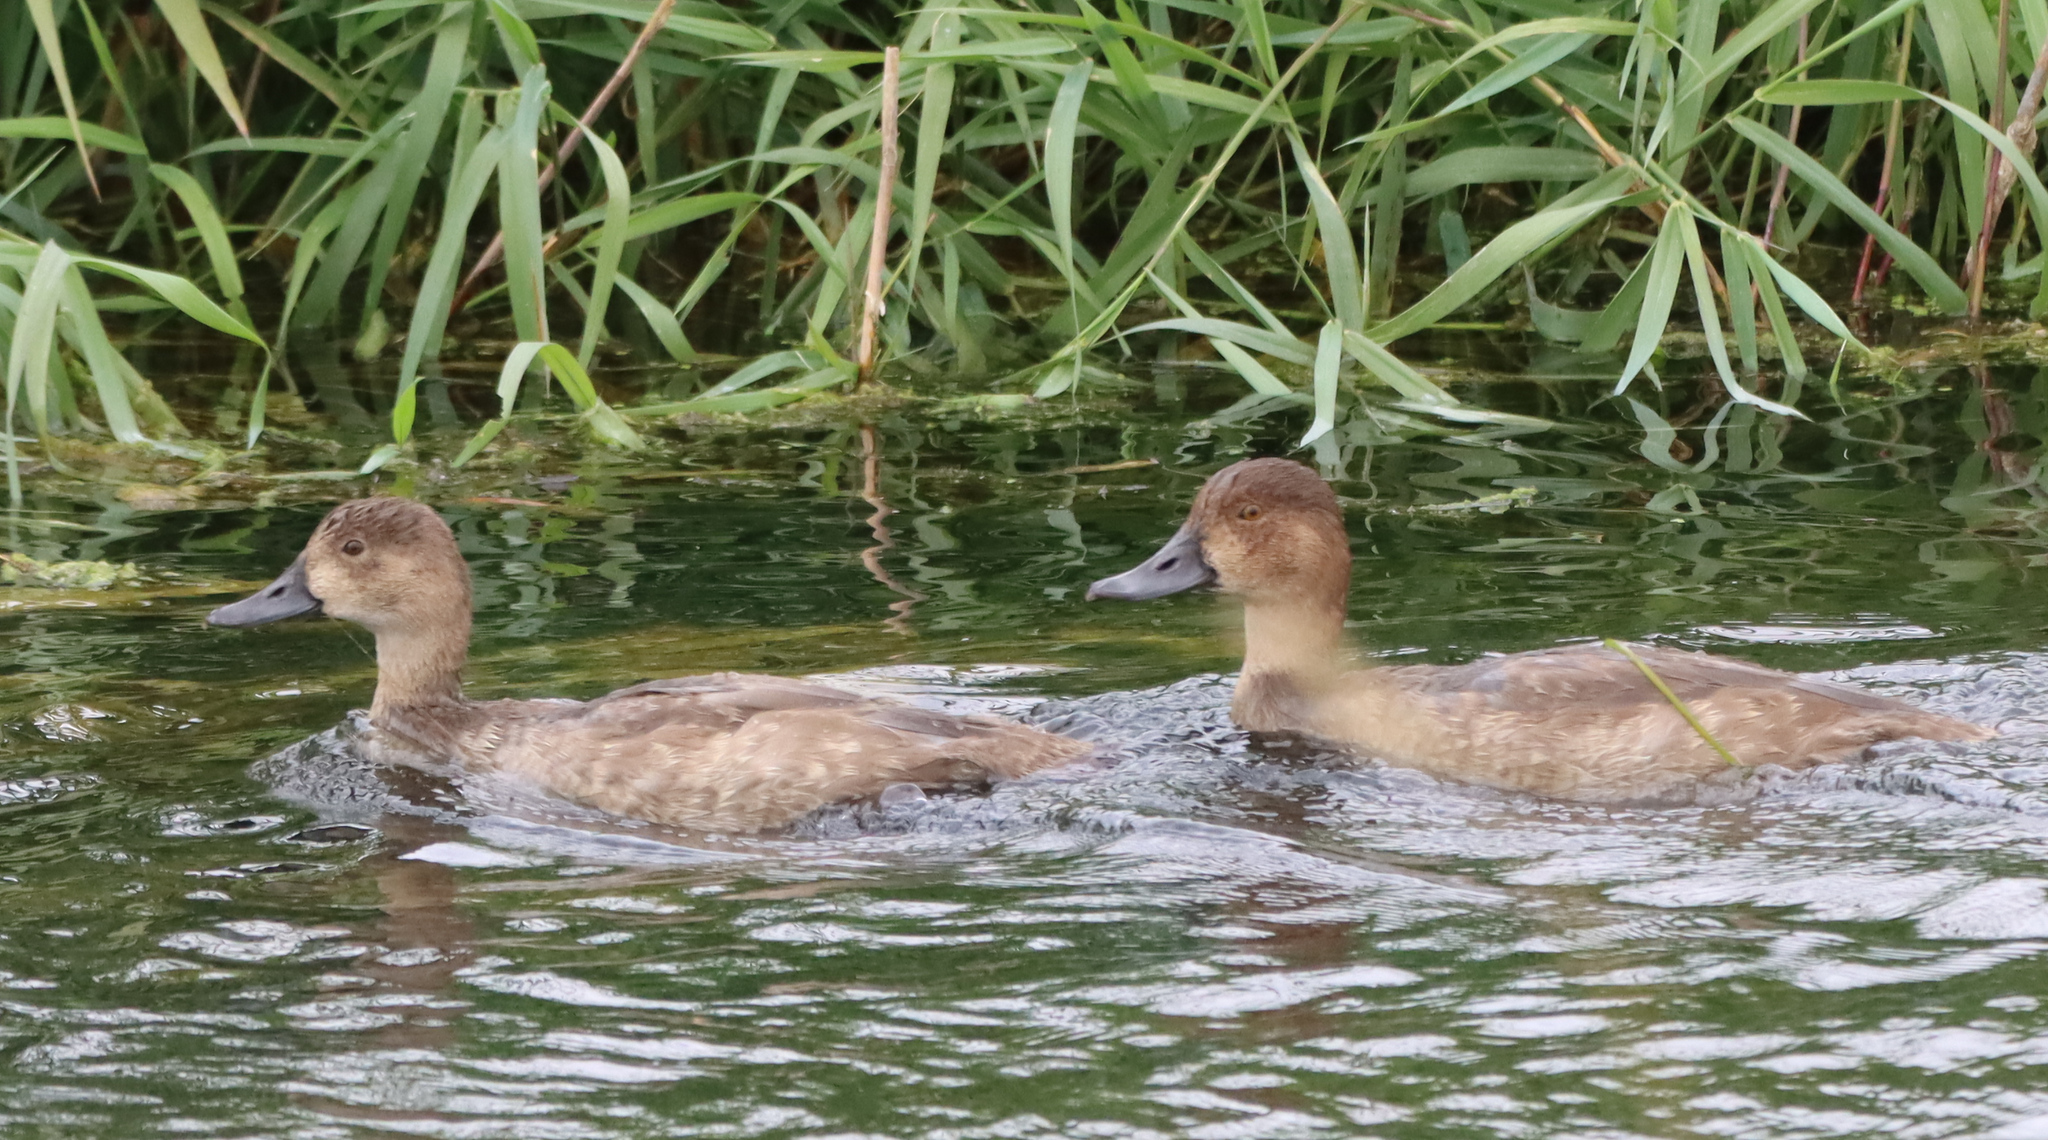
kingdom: Animalia
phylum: Chordata
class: Aves
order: Anseriformes
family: Anatidae
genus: Aythya
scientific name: Aythya americana
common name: Redhead
